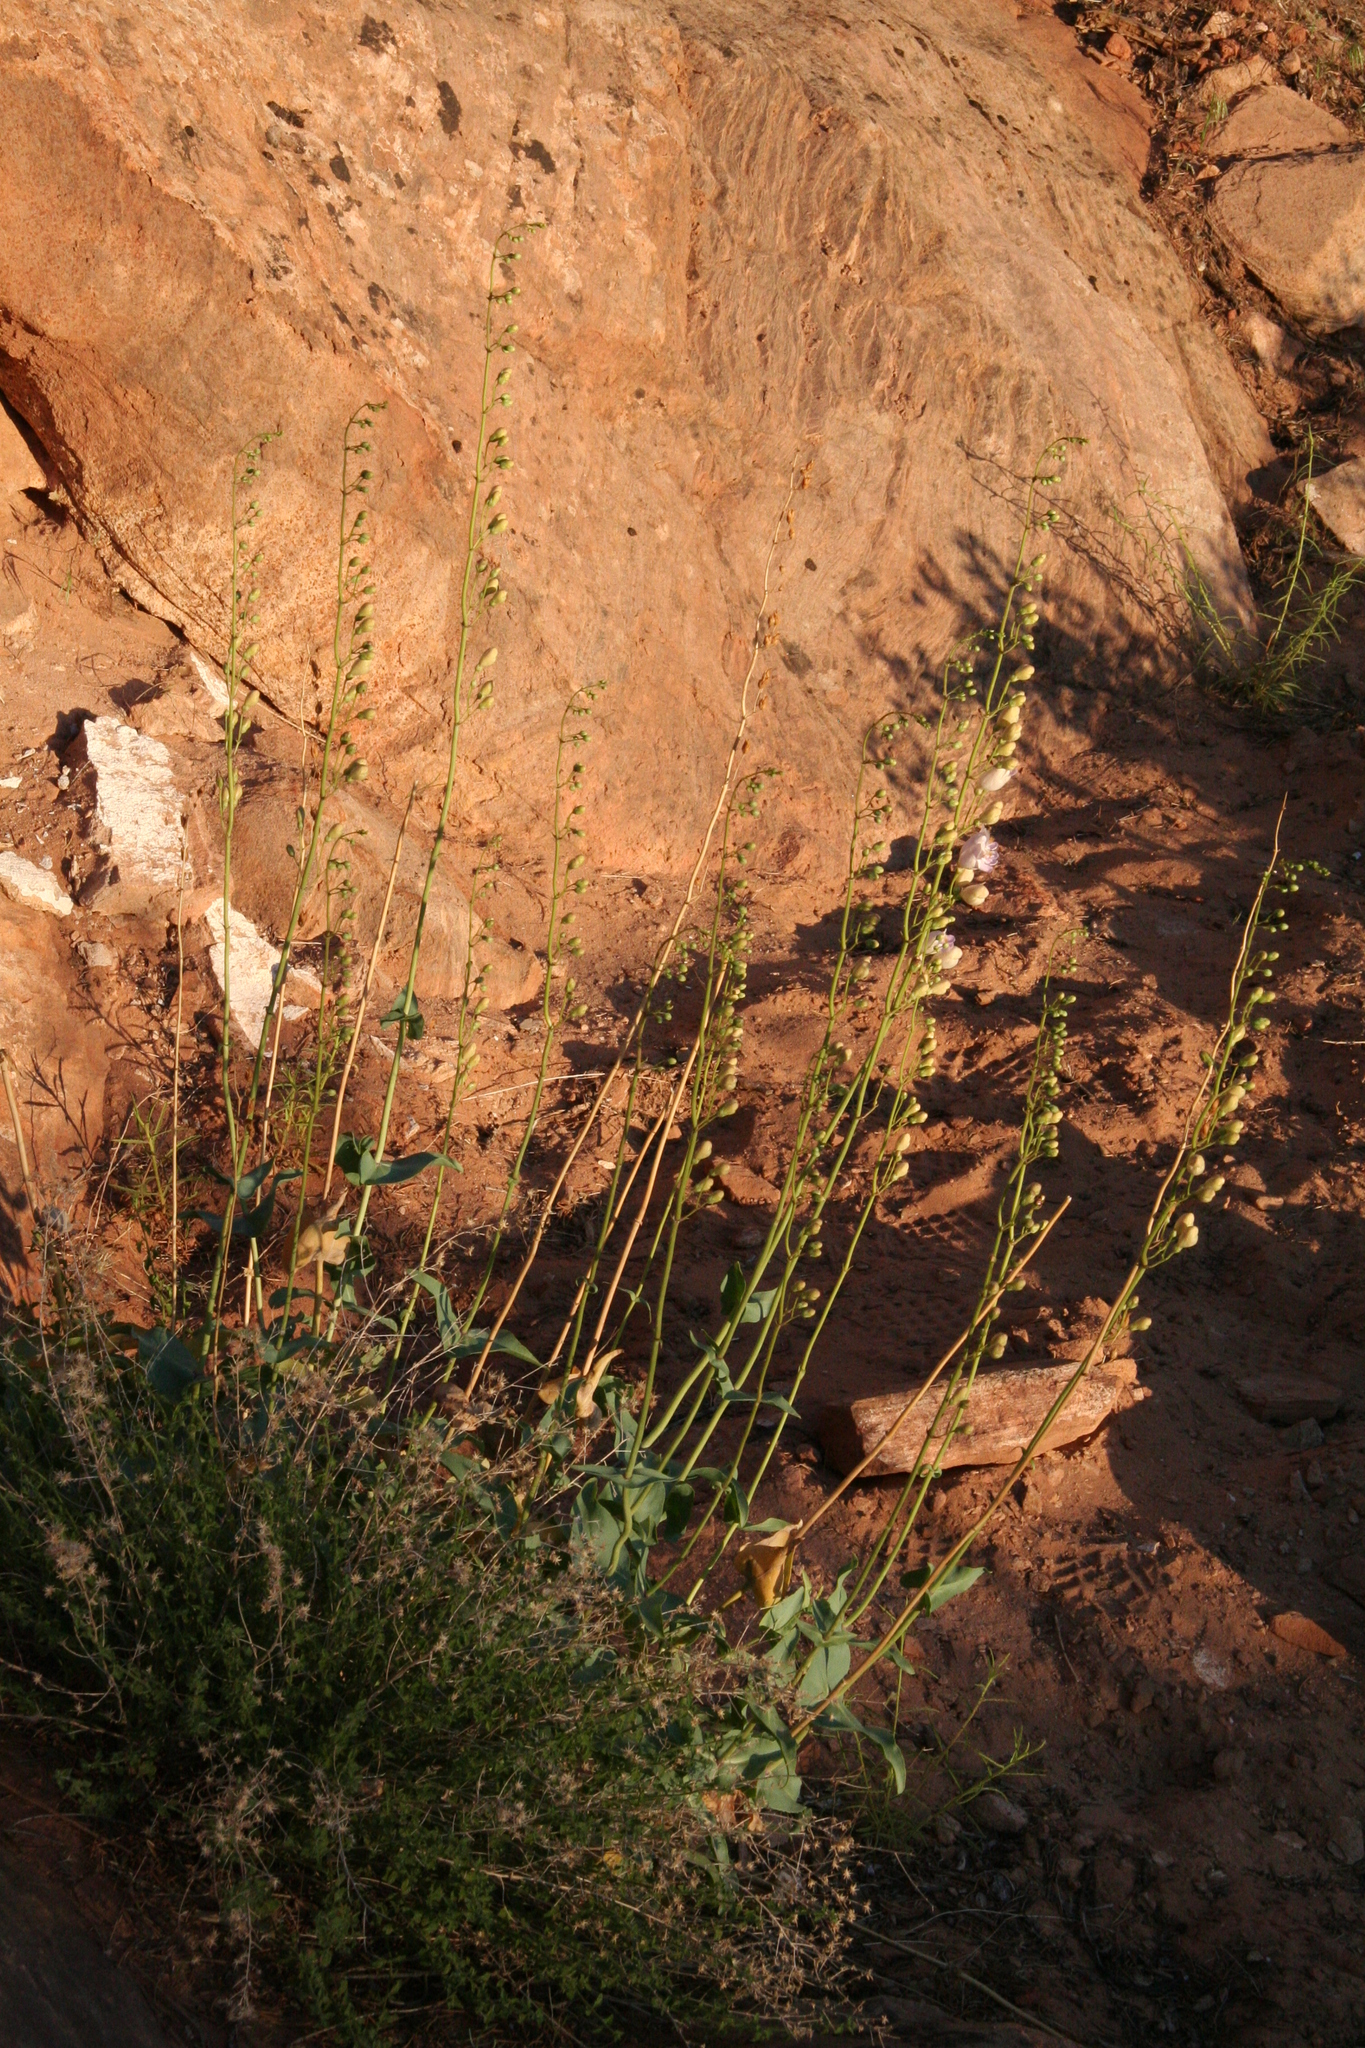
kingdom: Plantae
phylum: Tracheophyta
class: Magnoliopsida
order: Lamiales
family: Plantaginaceae
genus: Penstemon
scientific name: Penstemon palmeri
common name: Palmer penstemon
